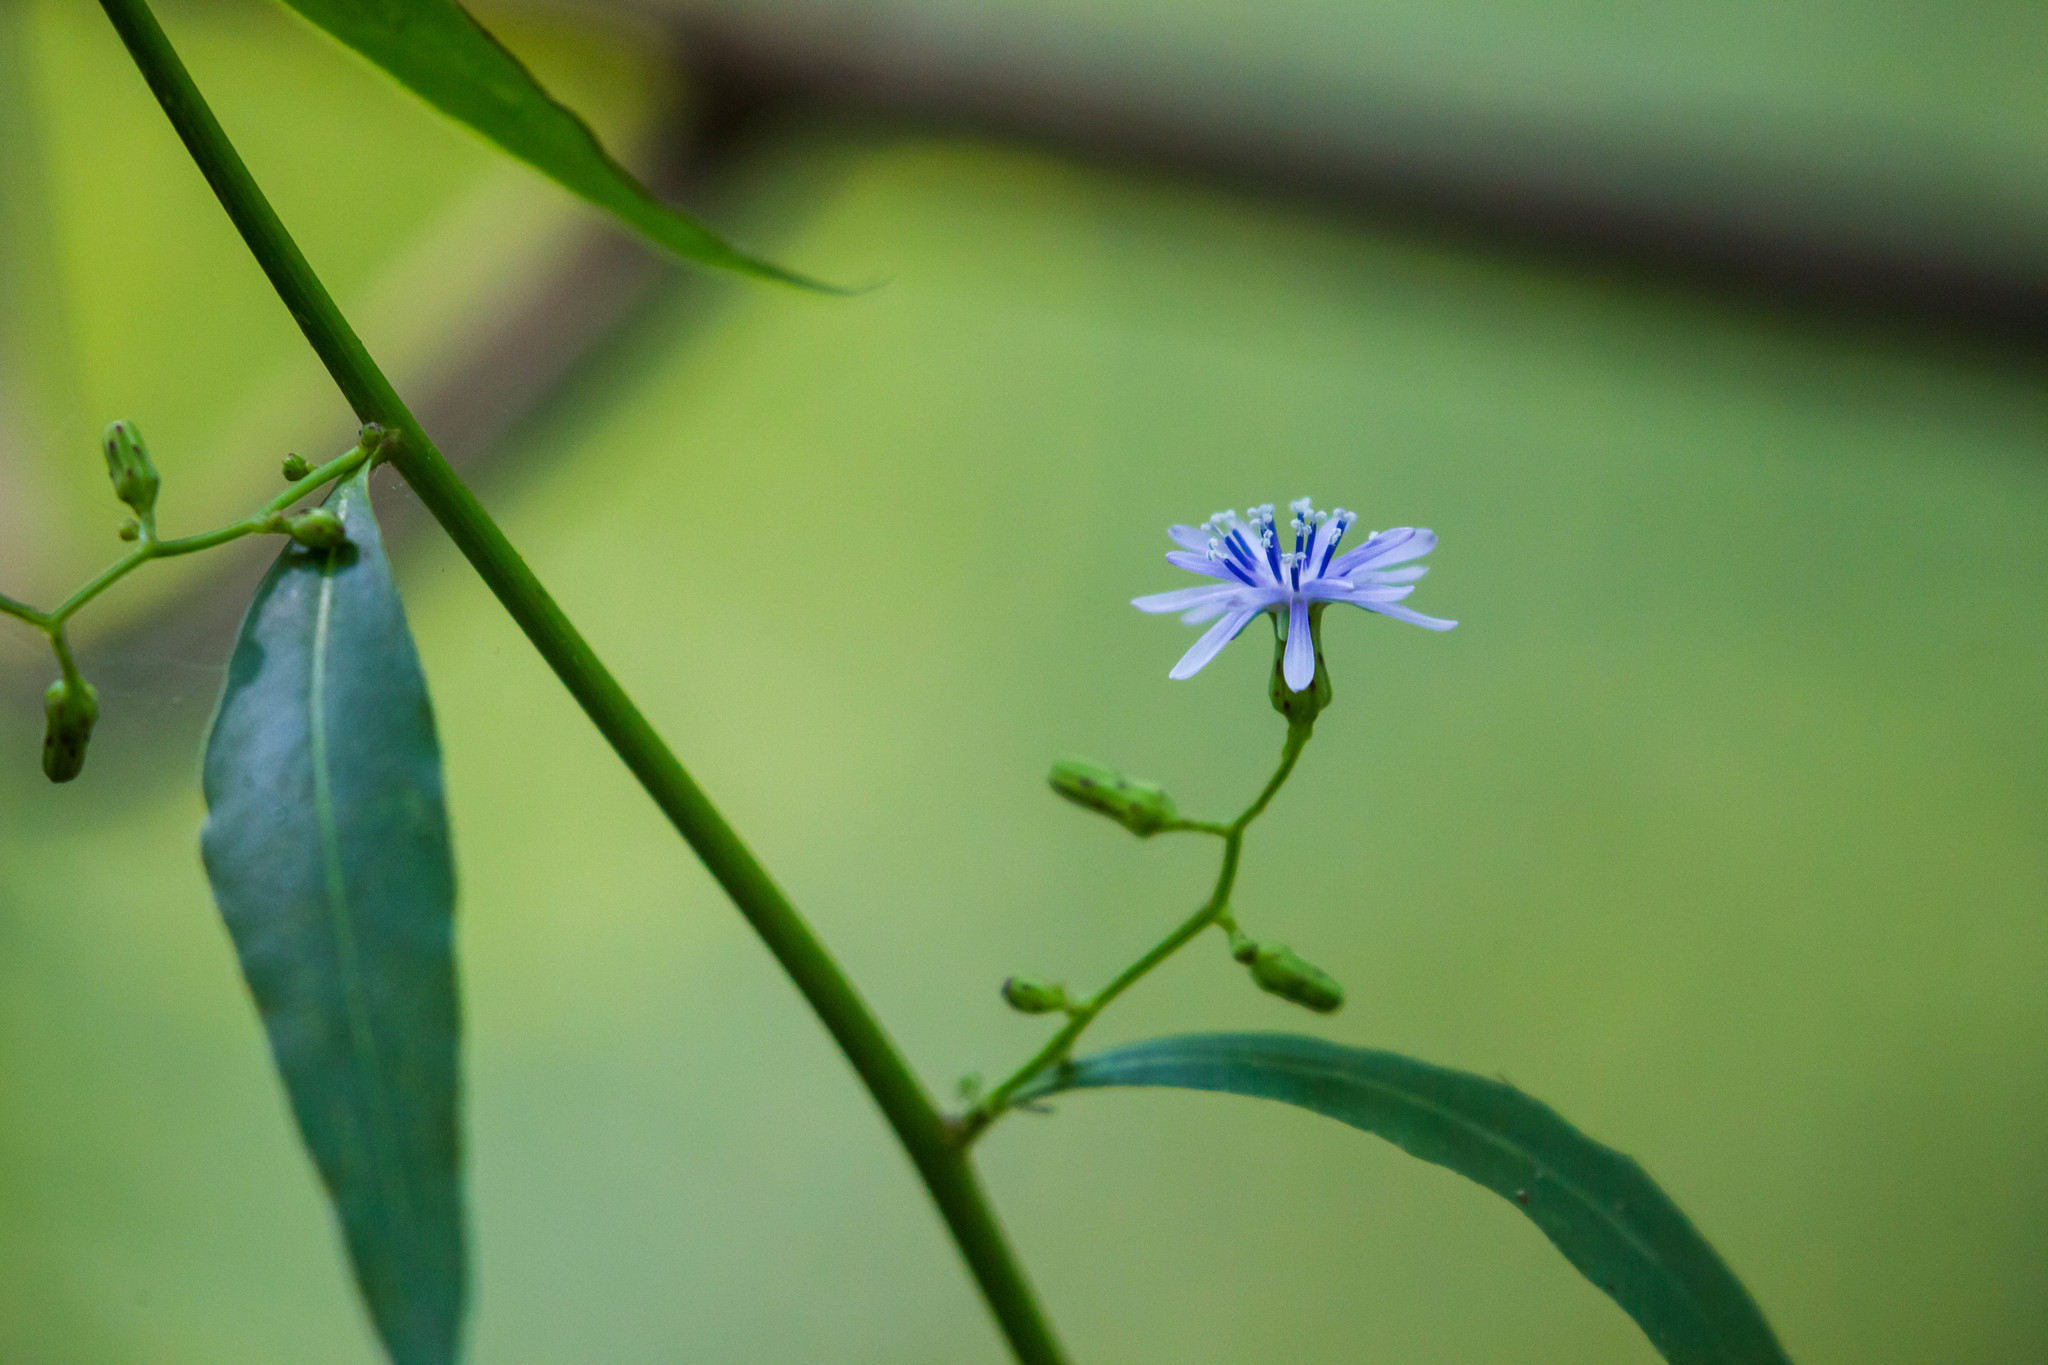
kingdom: Plantae
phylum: Tracheophyta
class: Magnoliopsida
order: Asterales
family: Asteraceae
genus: Lactuca
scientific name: Lactuca floridana
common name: Woodland lettuce
